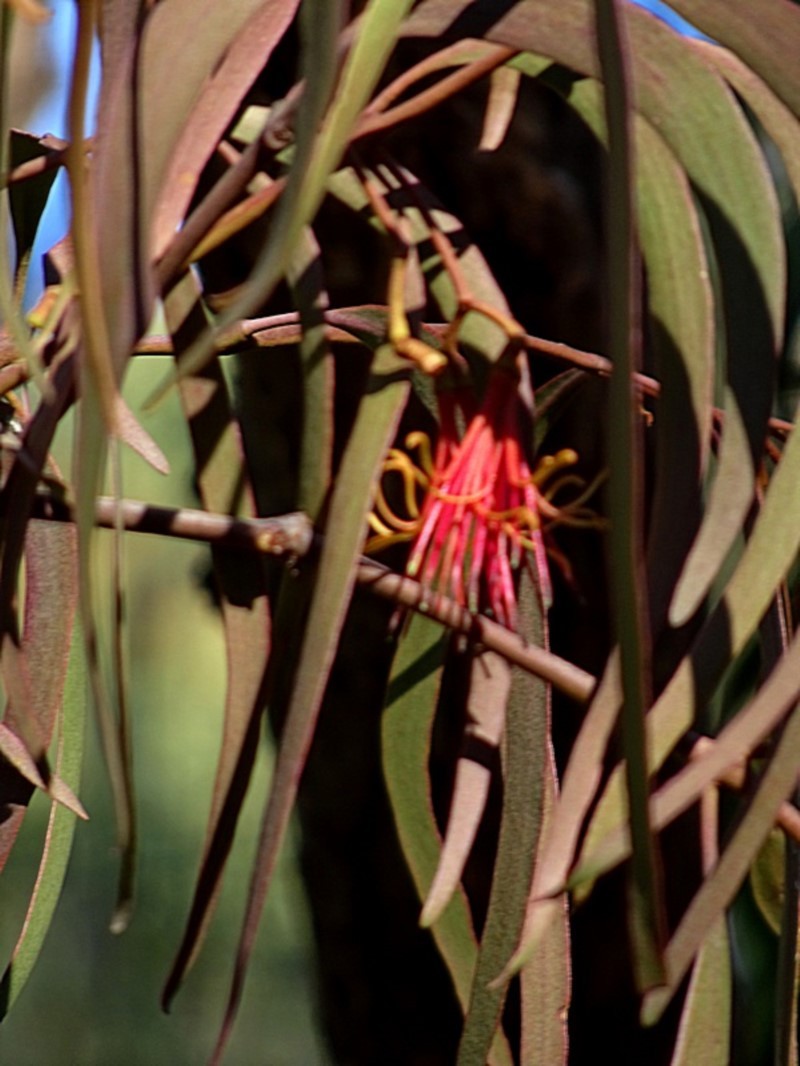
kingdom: Plantae
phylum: Tracheophyta
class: Magnoliopsida
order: Santalales
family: Loranthaceae
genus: Amyema
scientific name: Amyema pendula
